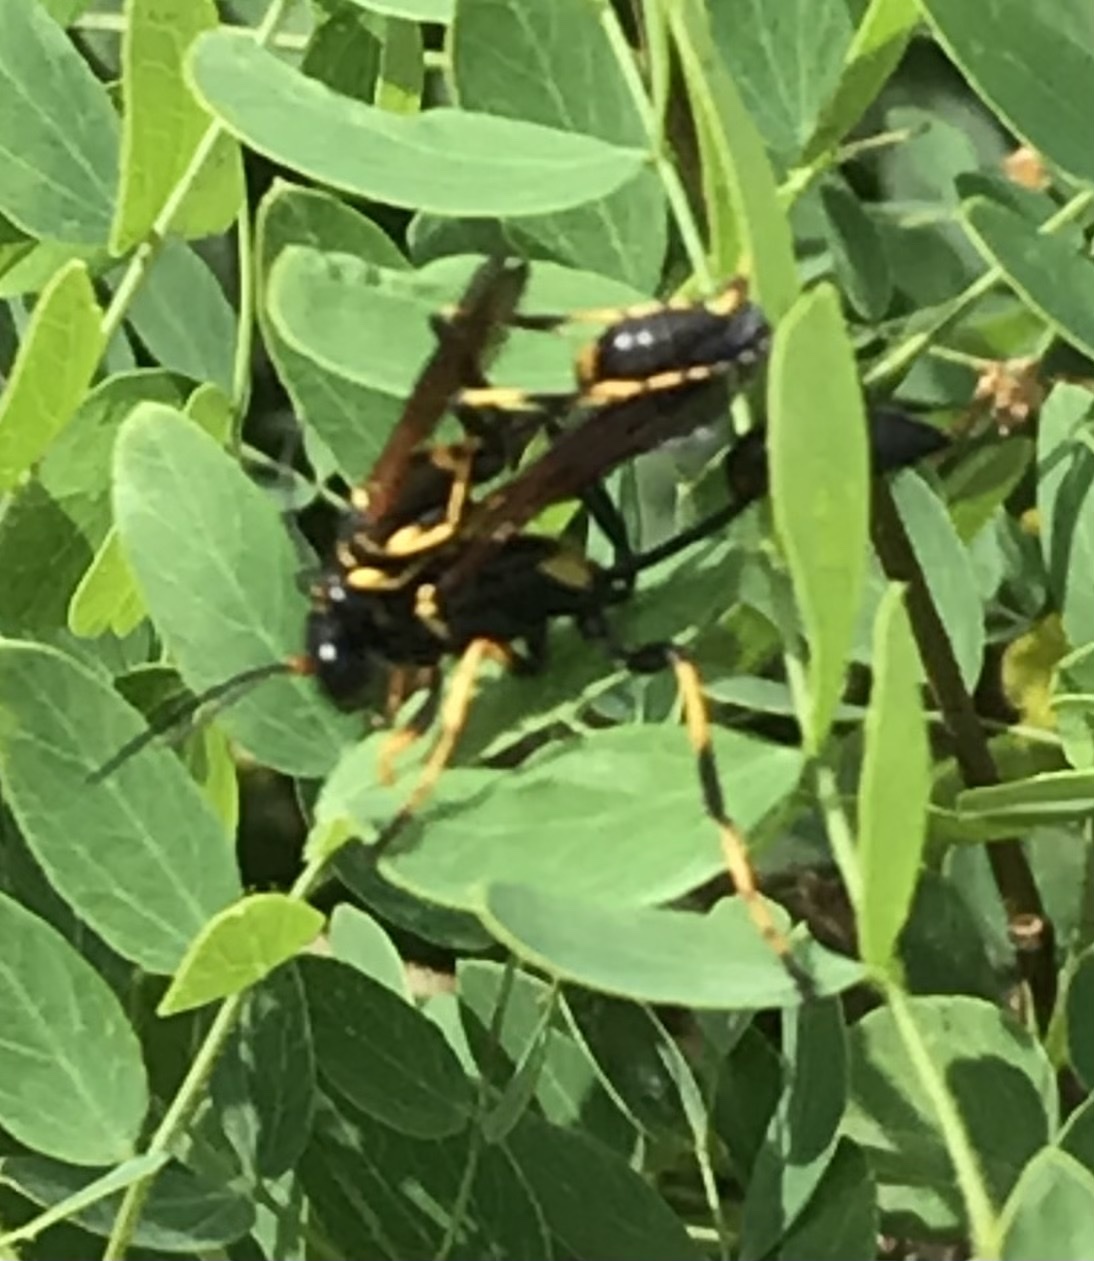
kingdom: Animalia
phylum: Arthropoda
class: Insecta
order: Hymenoptera
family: Sphecidae
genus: Sceliphron
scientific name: Sceliphron caementarium
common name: Mud dauber
